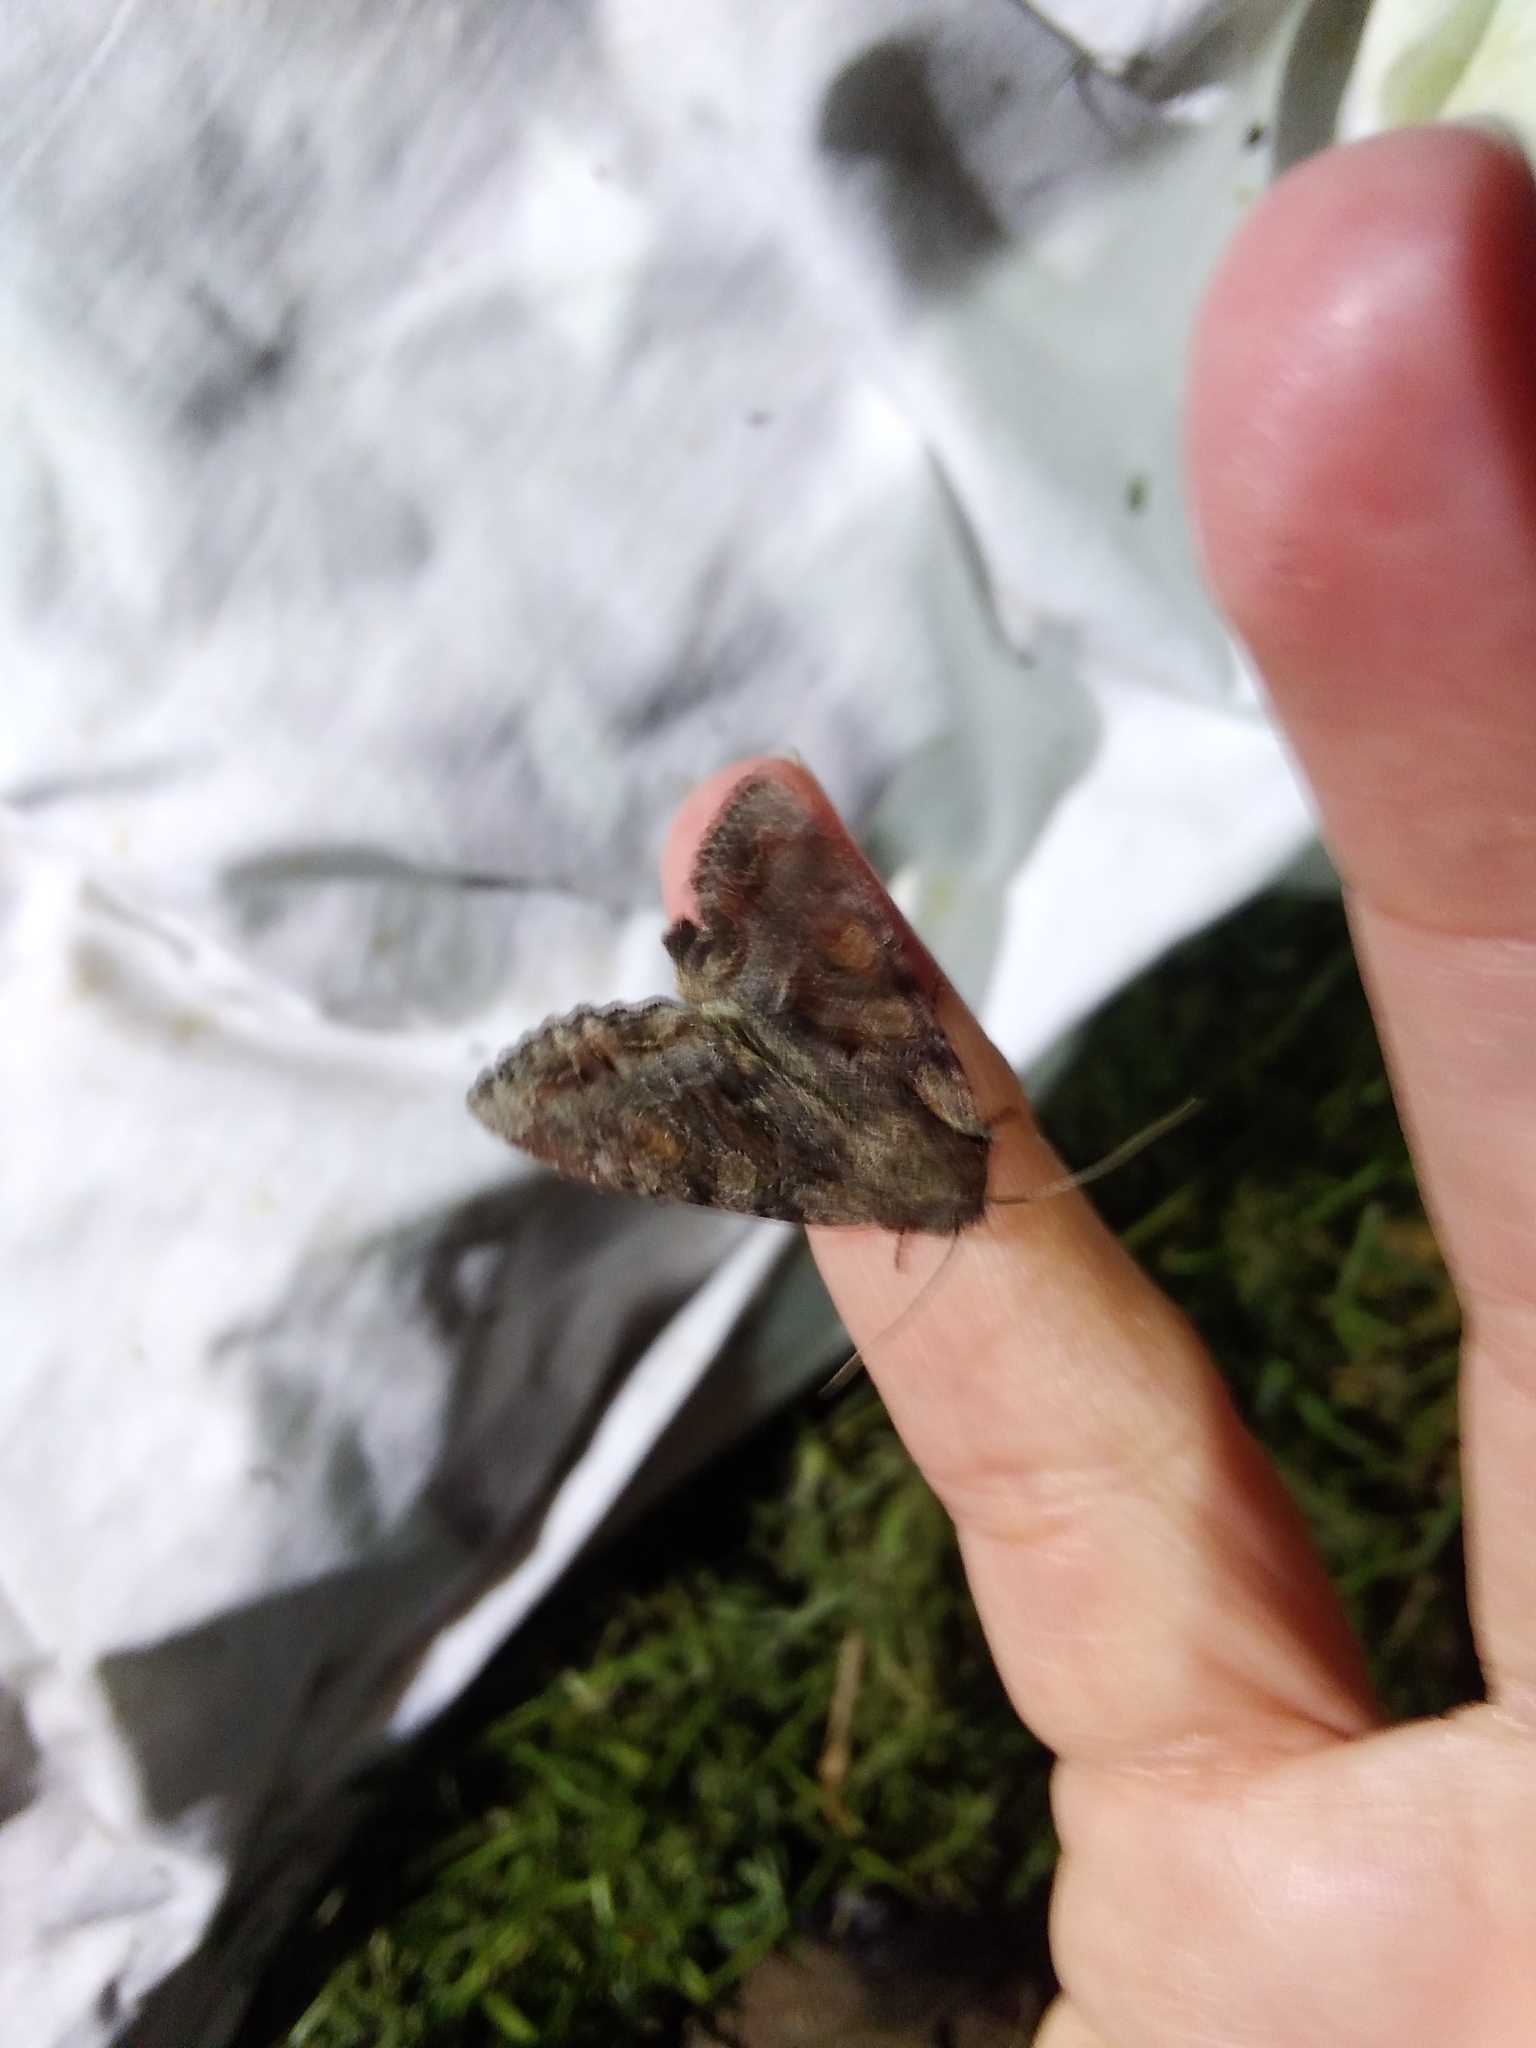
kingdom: Animalia
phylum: Arthropoda
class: Insecta
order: Lepidoptera
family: Noctuidae
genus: Lacanobia
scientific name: Lacanobia thalassina
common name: Pale-shouldered brocade
